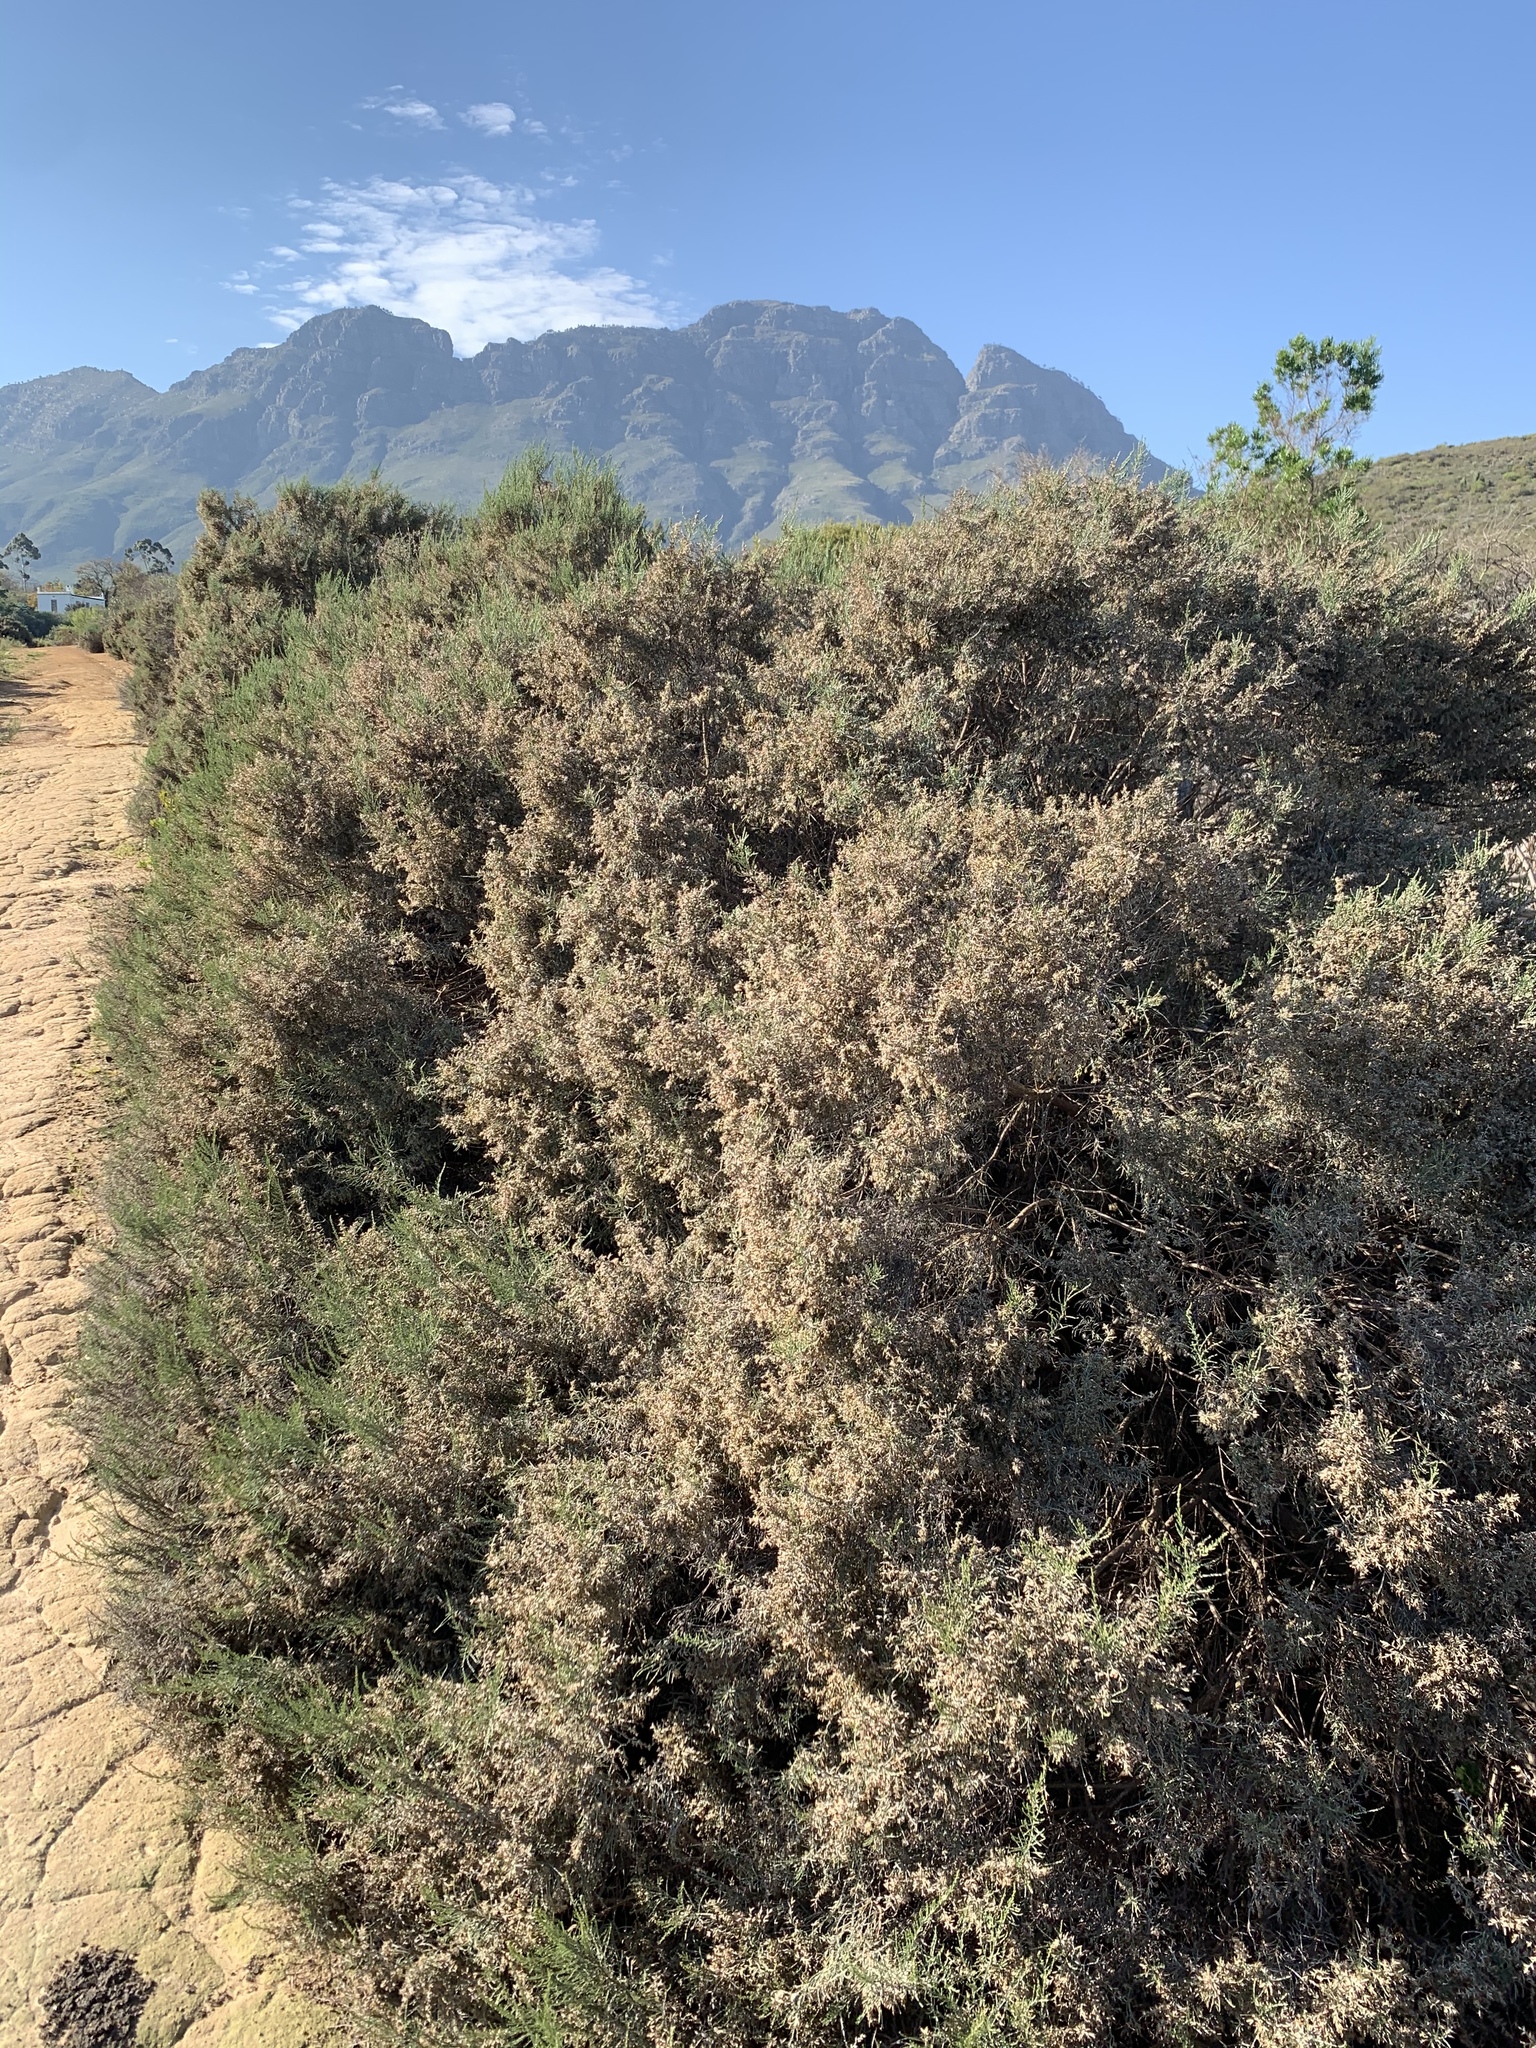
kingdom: Plantae
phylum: Tracheophyta
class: Magnoliopsida
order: Asterales
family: Asteraceae
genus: Dicerothamnus
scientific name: Dicerothamnus rhinocerotis
